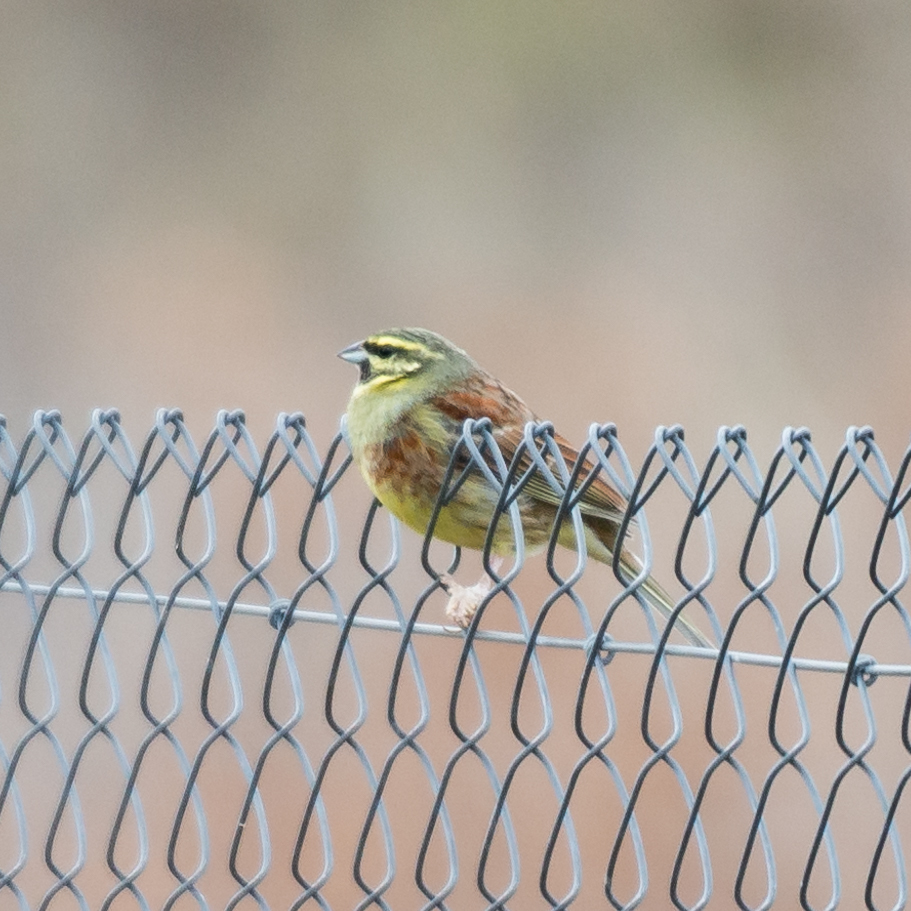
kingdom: Animalia
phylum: Chordata
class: Aves
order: Passeriformes
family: Emberizidae
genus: Emberiza
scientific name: Emberiza cirlus
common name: Cirl bunting
